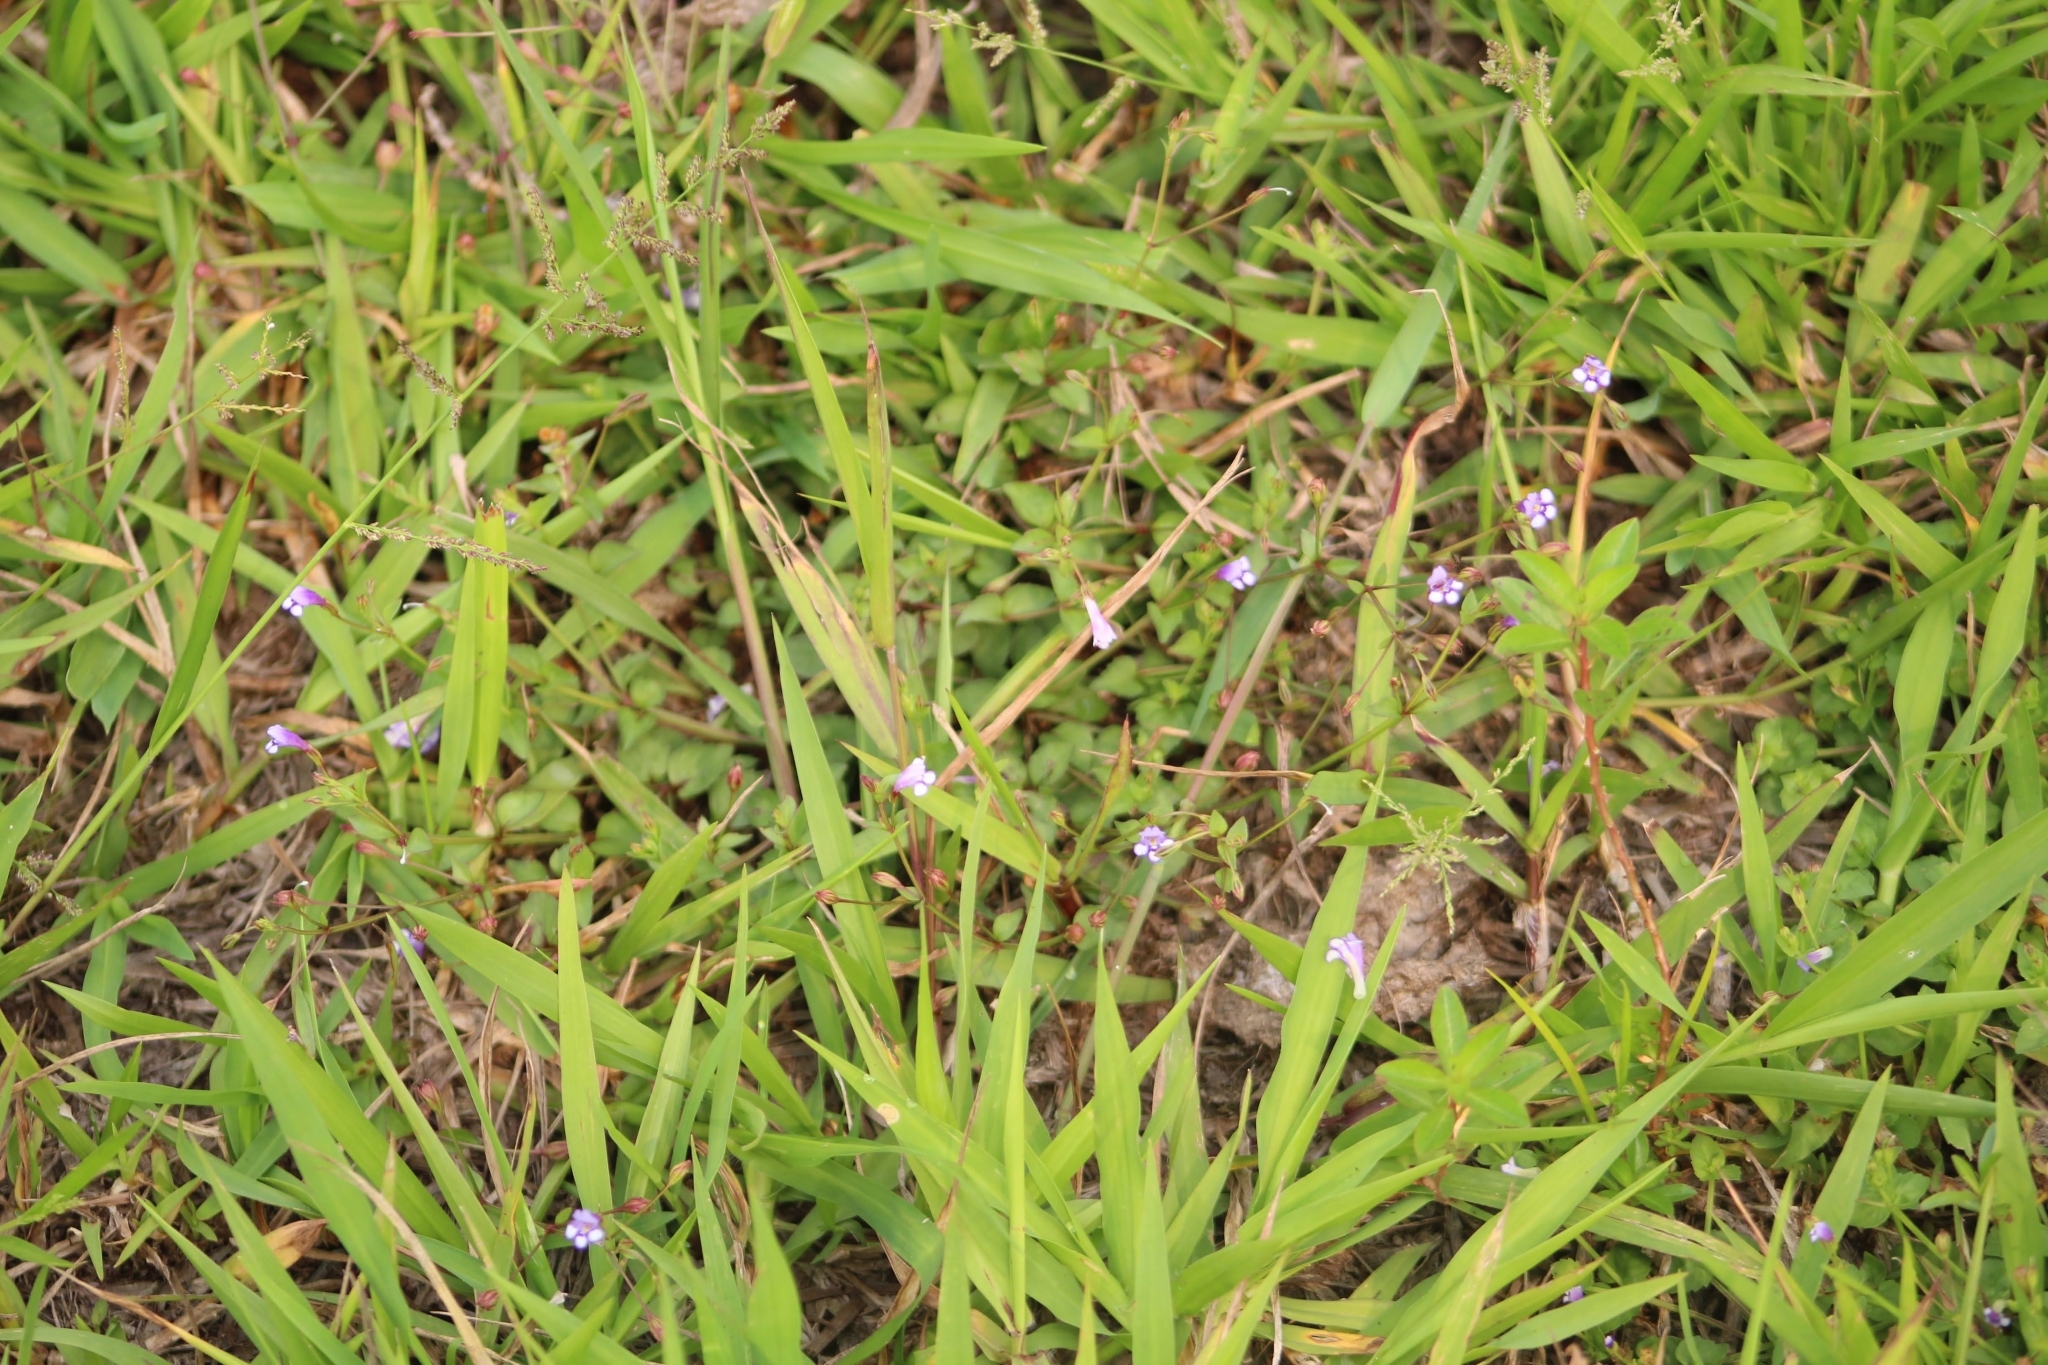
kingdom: Plantae
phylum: Tracheophyta
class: Magnoliopsida
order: Lamiales
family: Linderniaceae
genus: Torenia
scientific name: Torenia crustacea
